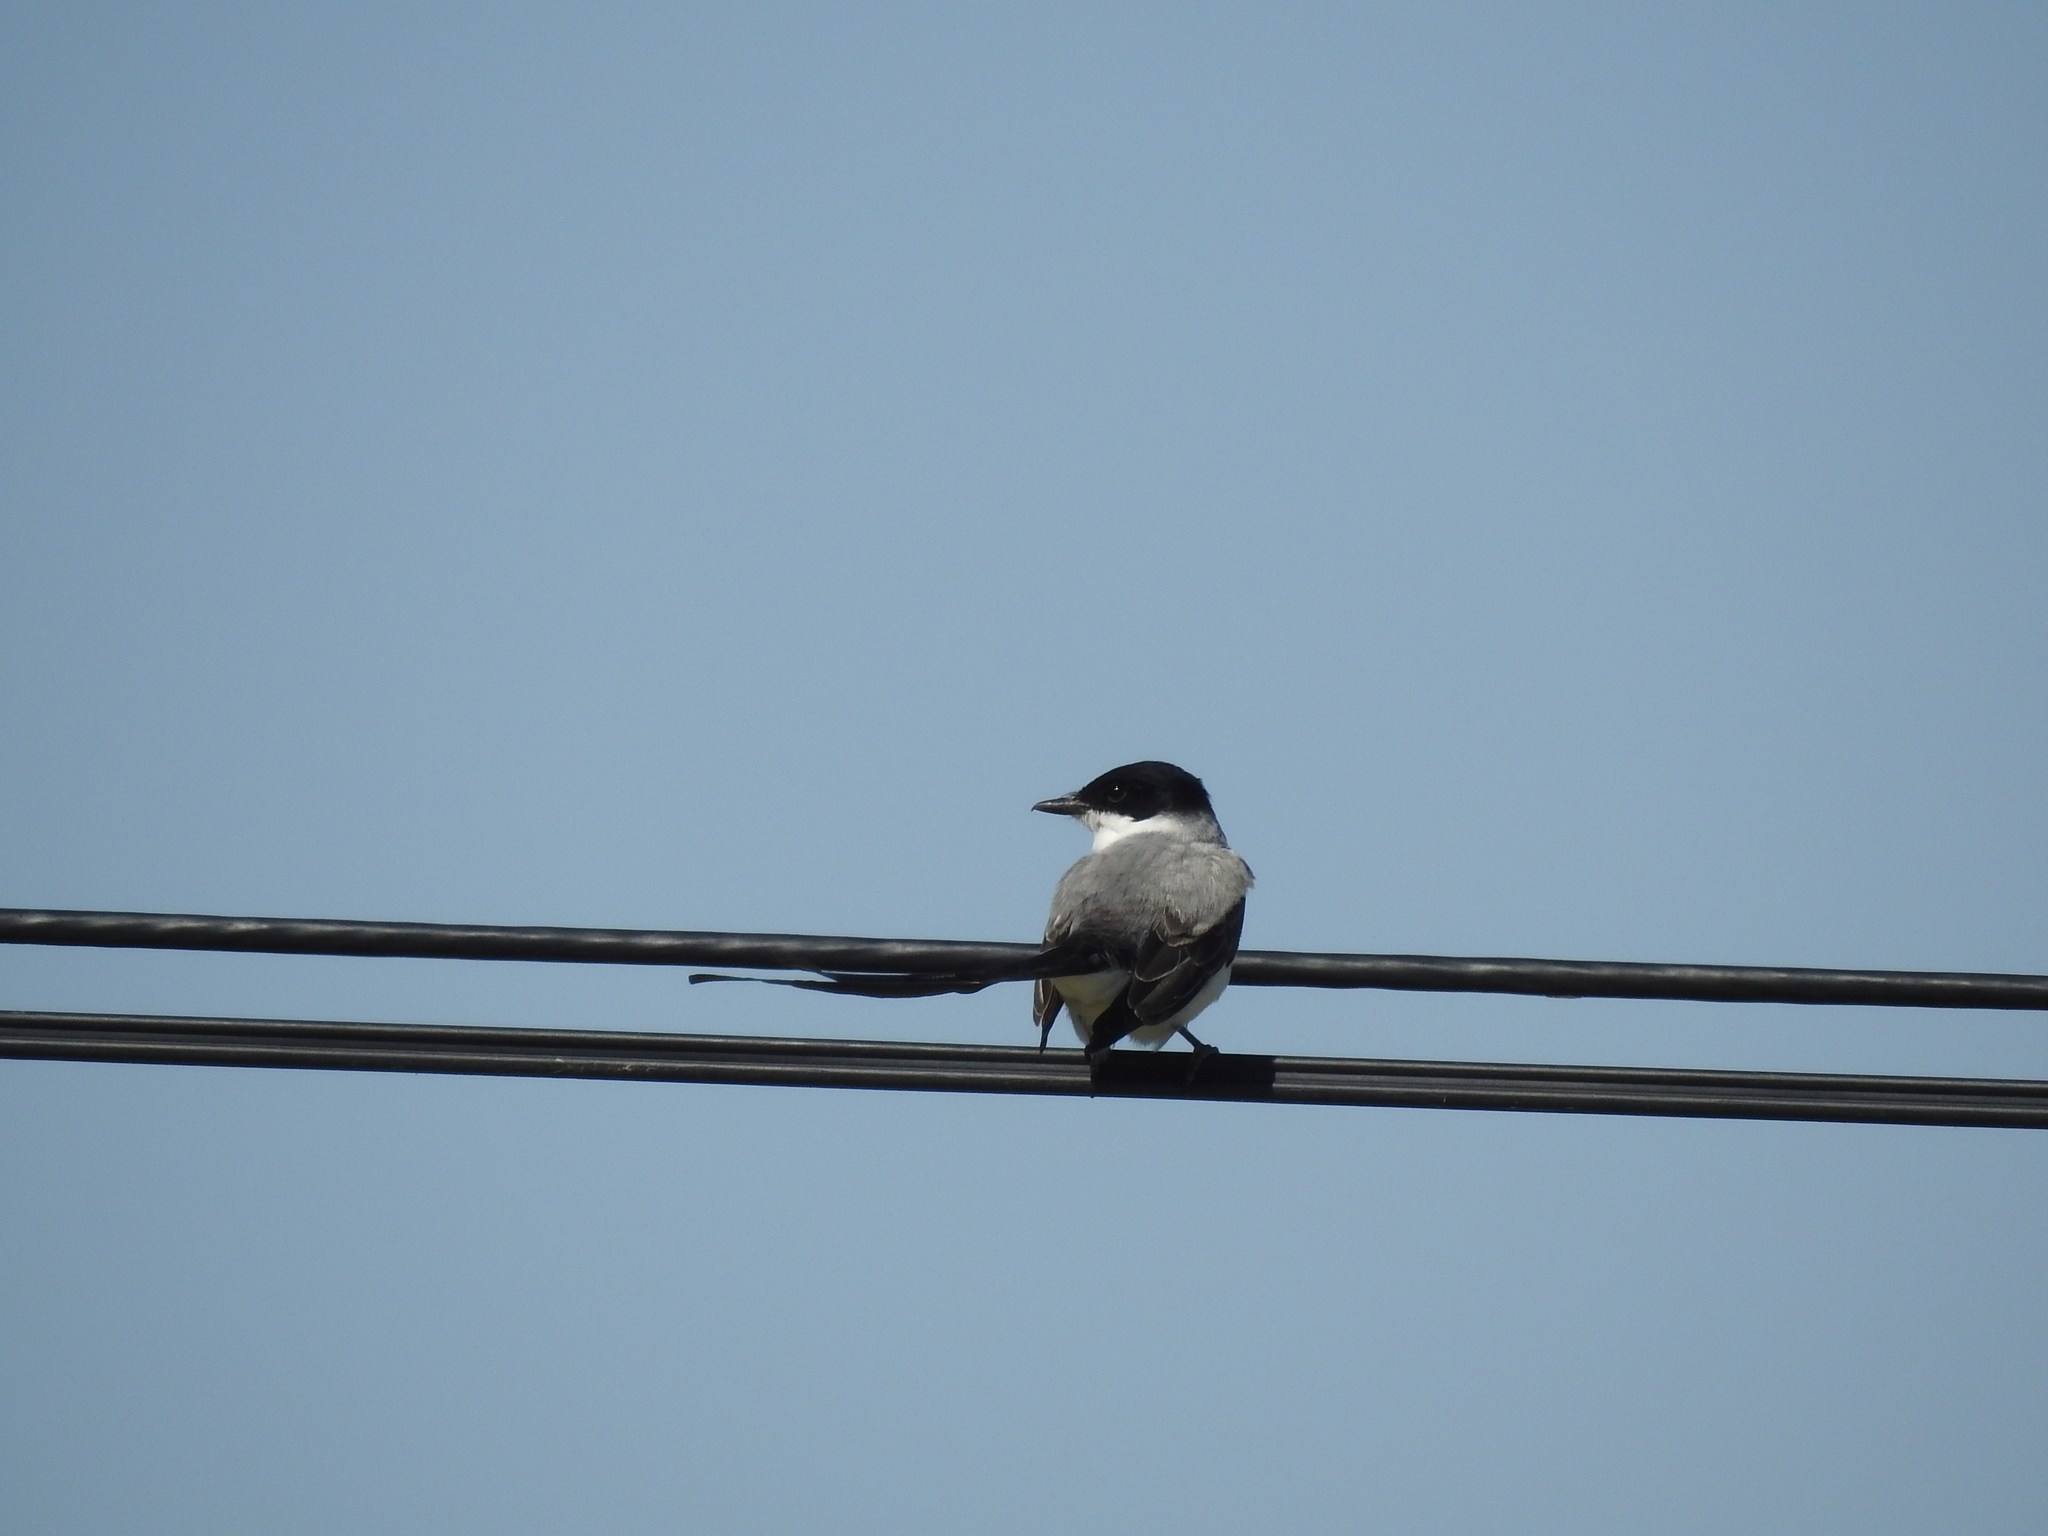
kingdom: Animalia
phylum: Chordata
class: Aves
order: Passeriformes
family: Tyrannidae
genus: Tyrannus
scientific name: Tyrannus savana
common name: Fork-tailed flycatcher
